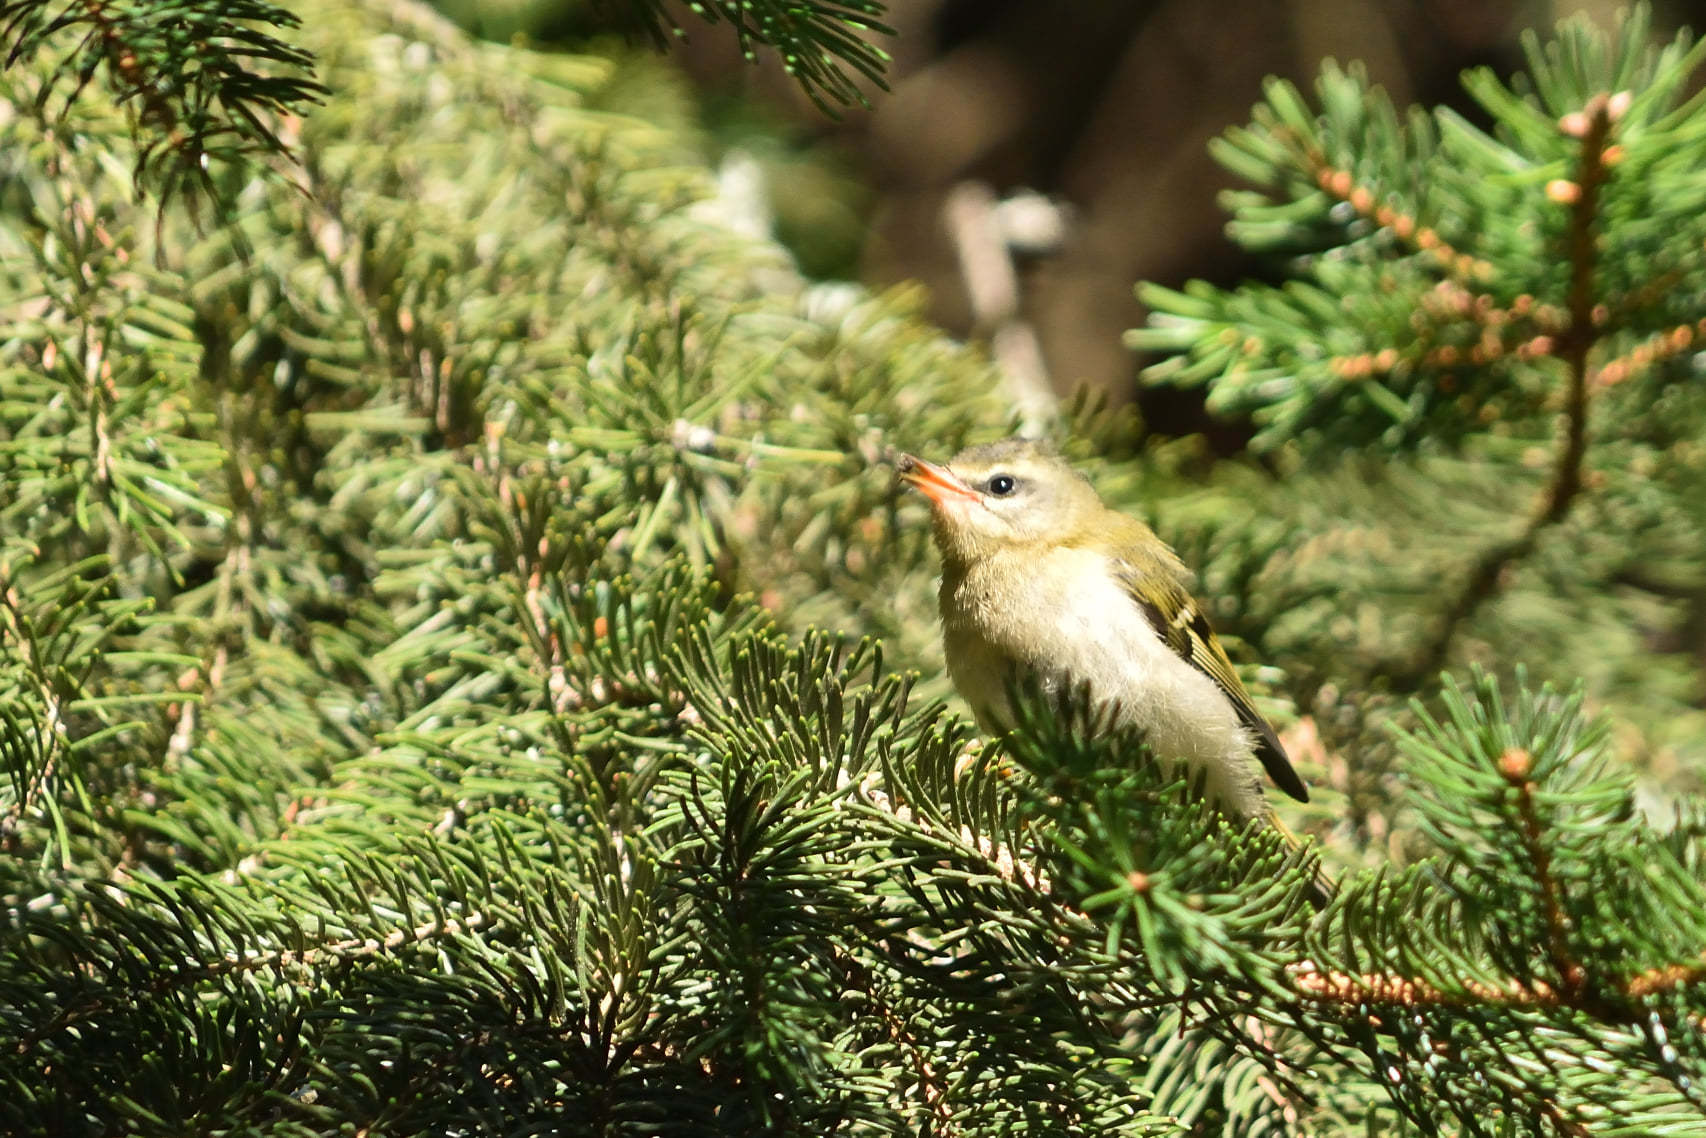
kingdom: Animalia
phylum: Chordata
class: Aves
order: Passeriformes
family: Regulidae
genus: Regulus
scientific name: Regulus ignicapilla
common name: Firecrest
